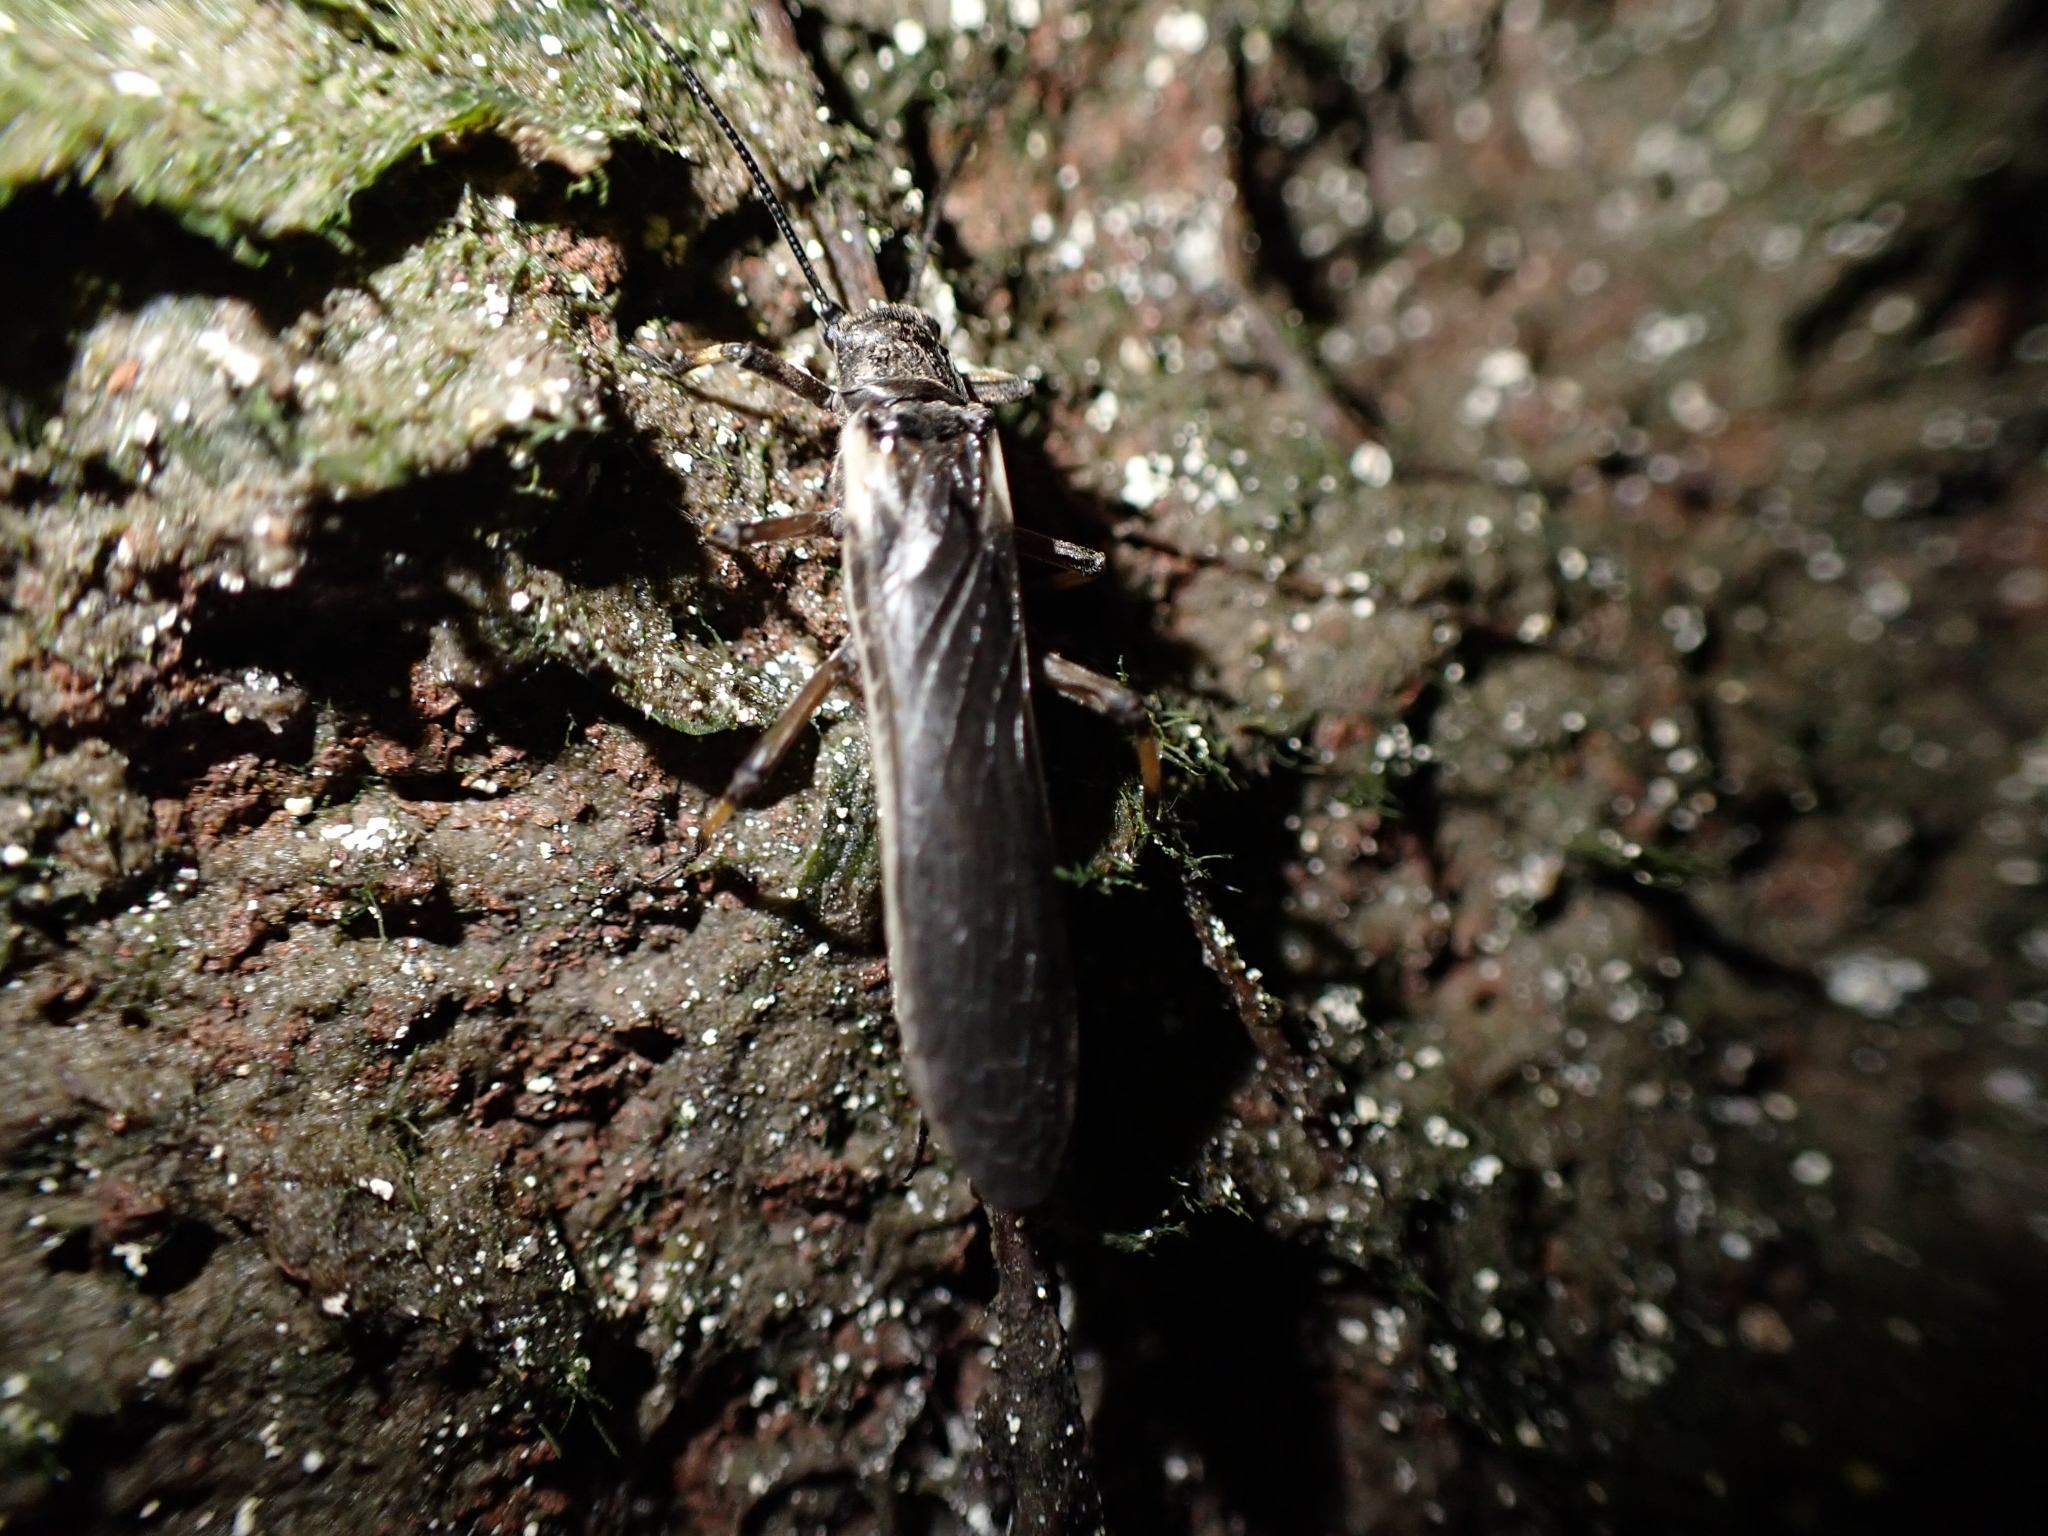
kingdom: Animalia
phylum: Arthropoda
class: Insecta
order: Plecoptera
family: Austroperlidae
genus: Austroperla
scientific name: Austroperla cyrene
